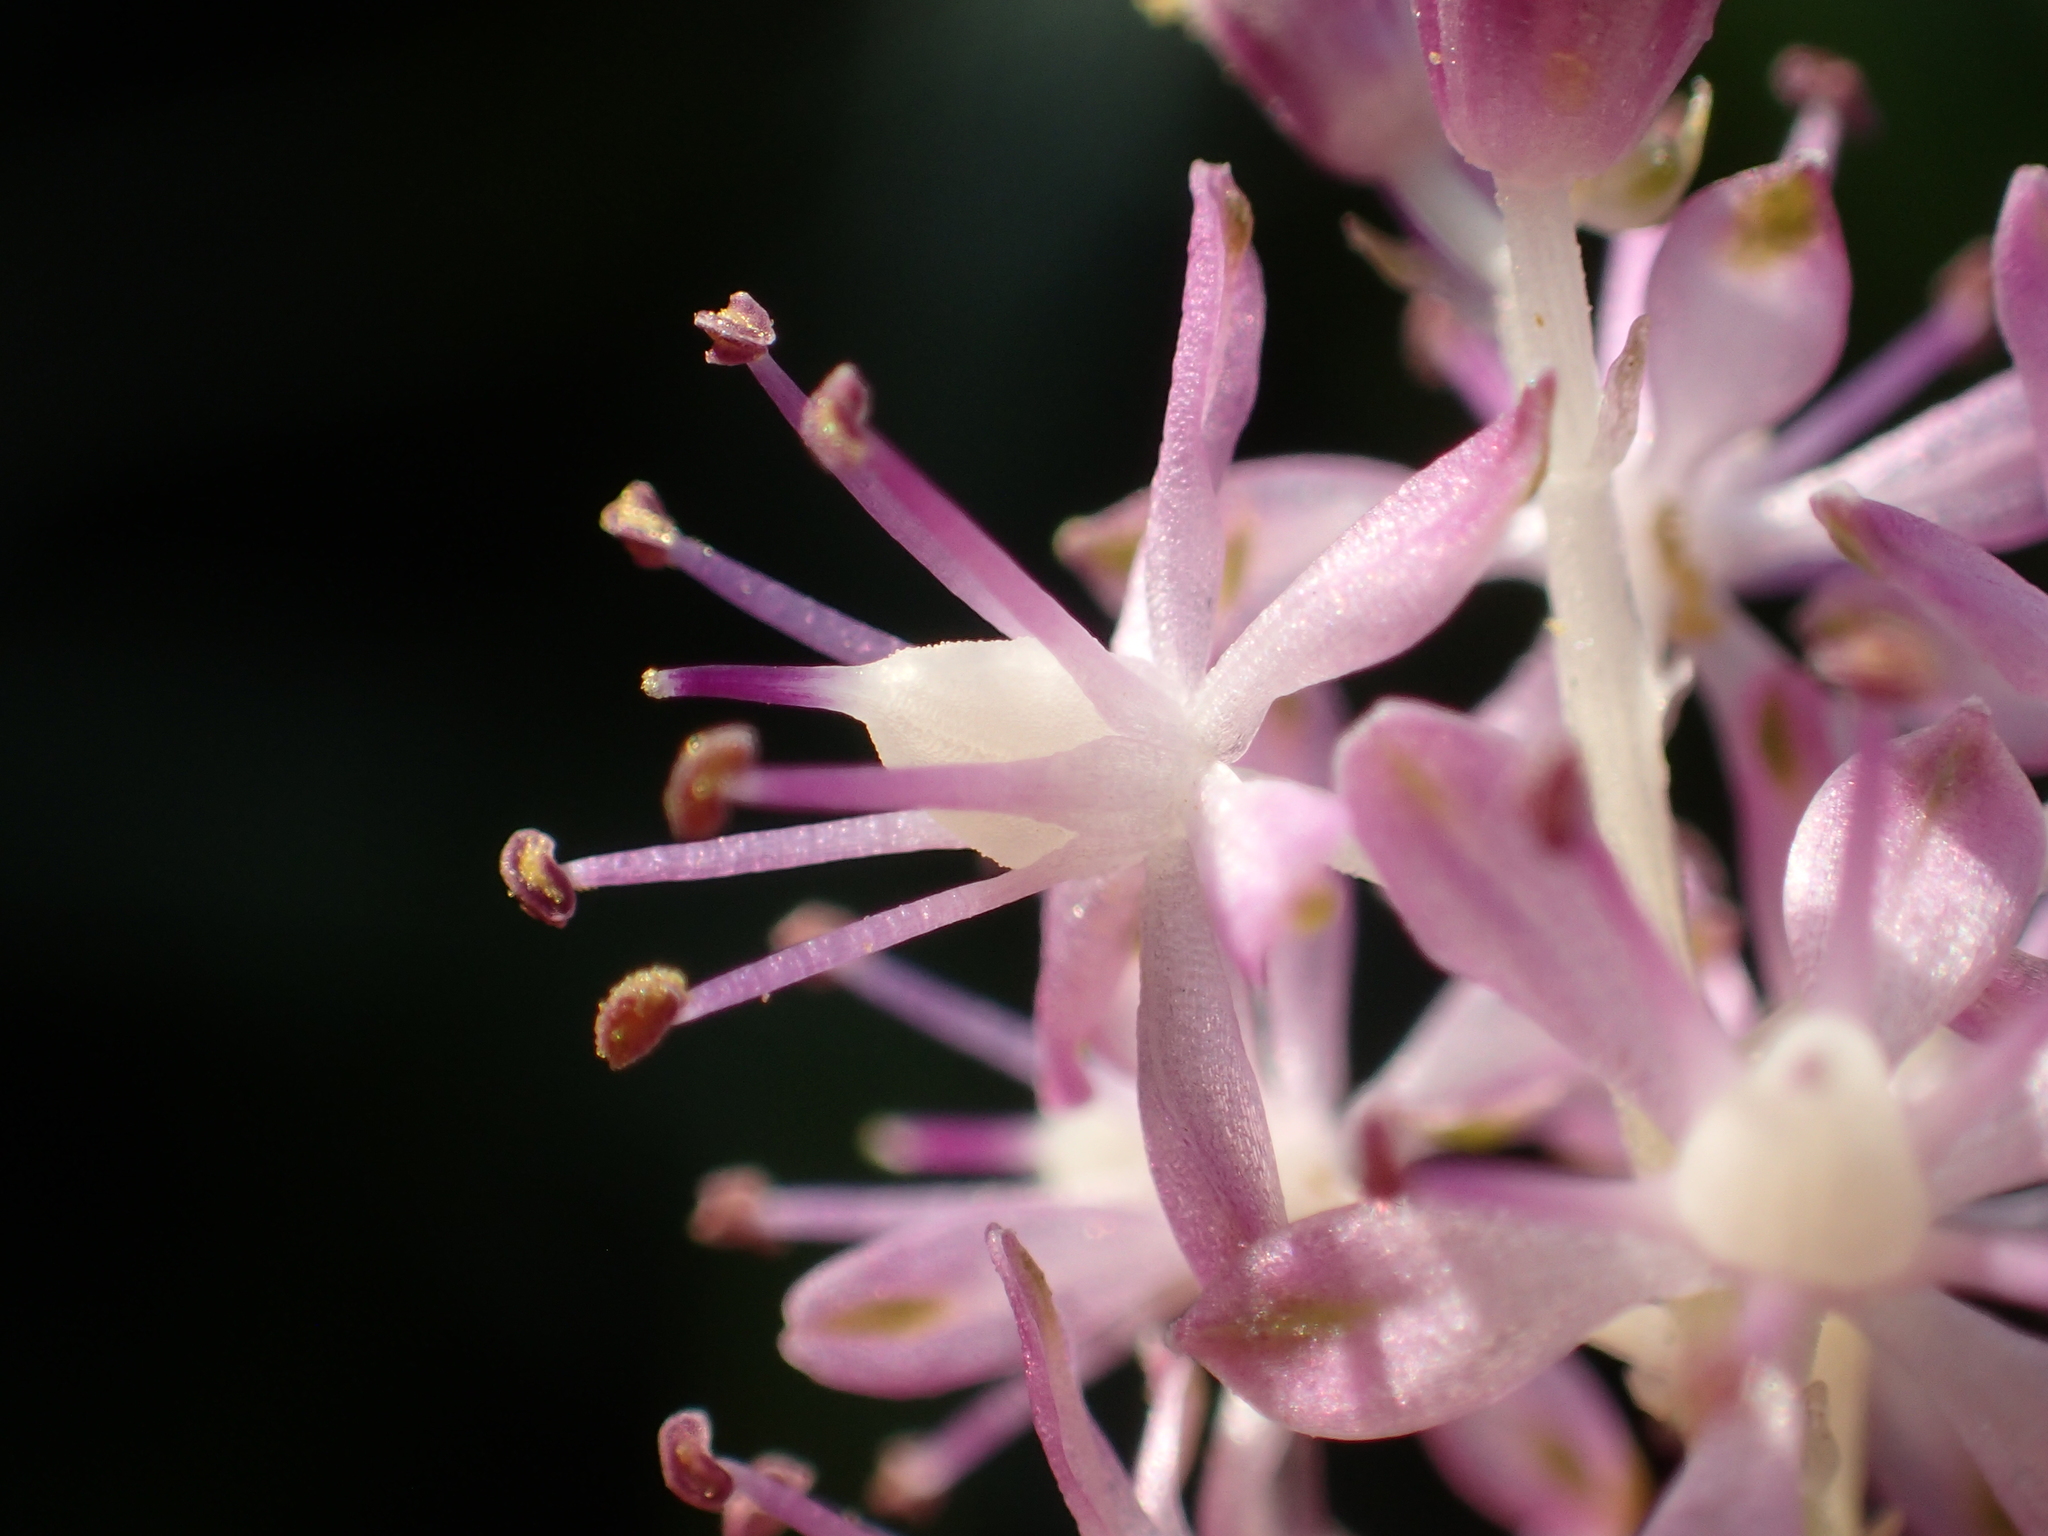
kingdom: Plantae
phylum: Tracheophyta
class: Liliopsida
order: Asparagales
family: Asparagaceae
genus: Barnardia
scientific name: Barnardia japonica
